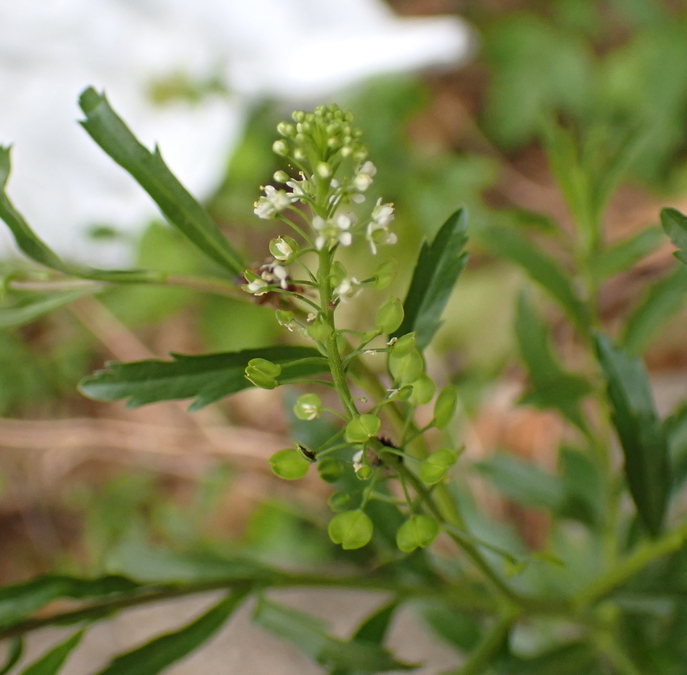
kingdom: Plantae
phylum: Tracheophyta
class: Magnoliopsida
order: Brassicales
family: Brassicaceae
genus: Lepidium
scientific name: Lepidium virginicum
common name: Least pepperwort
